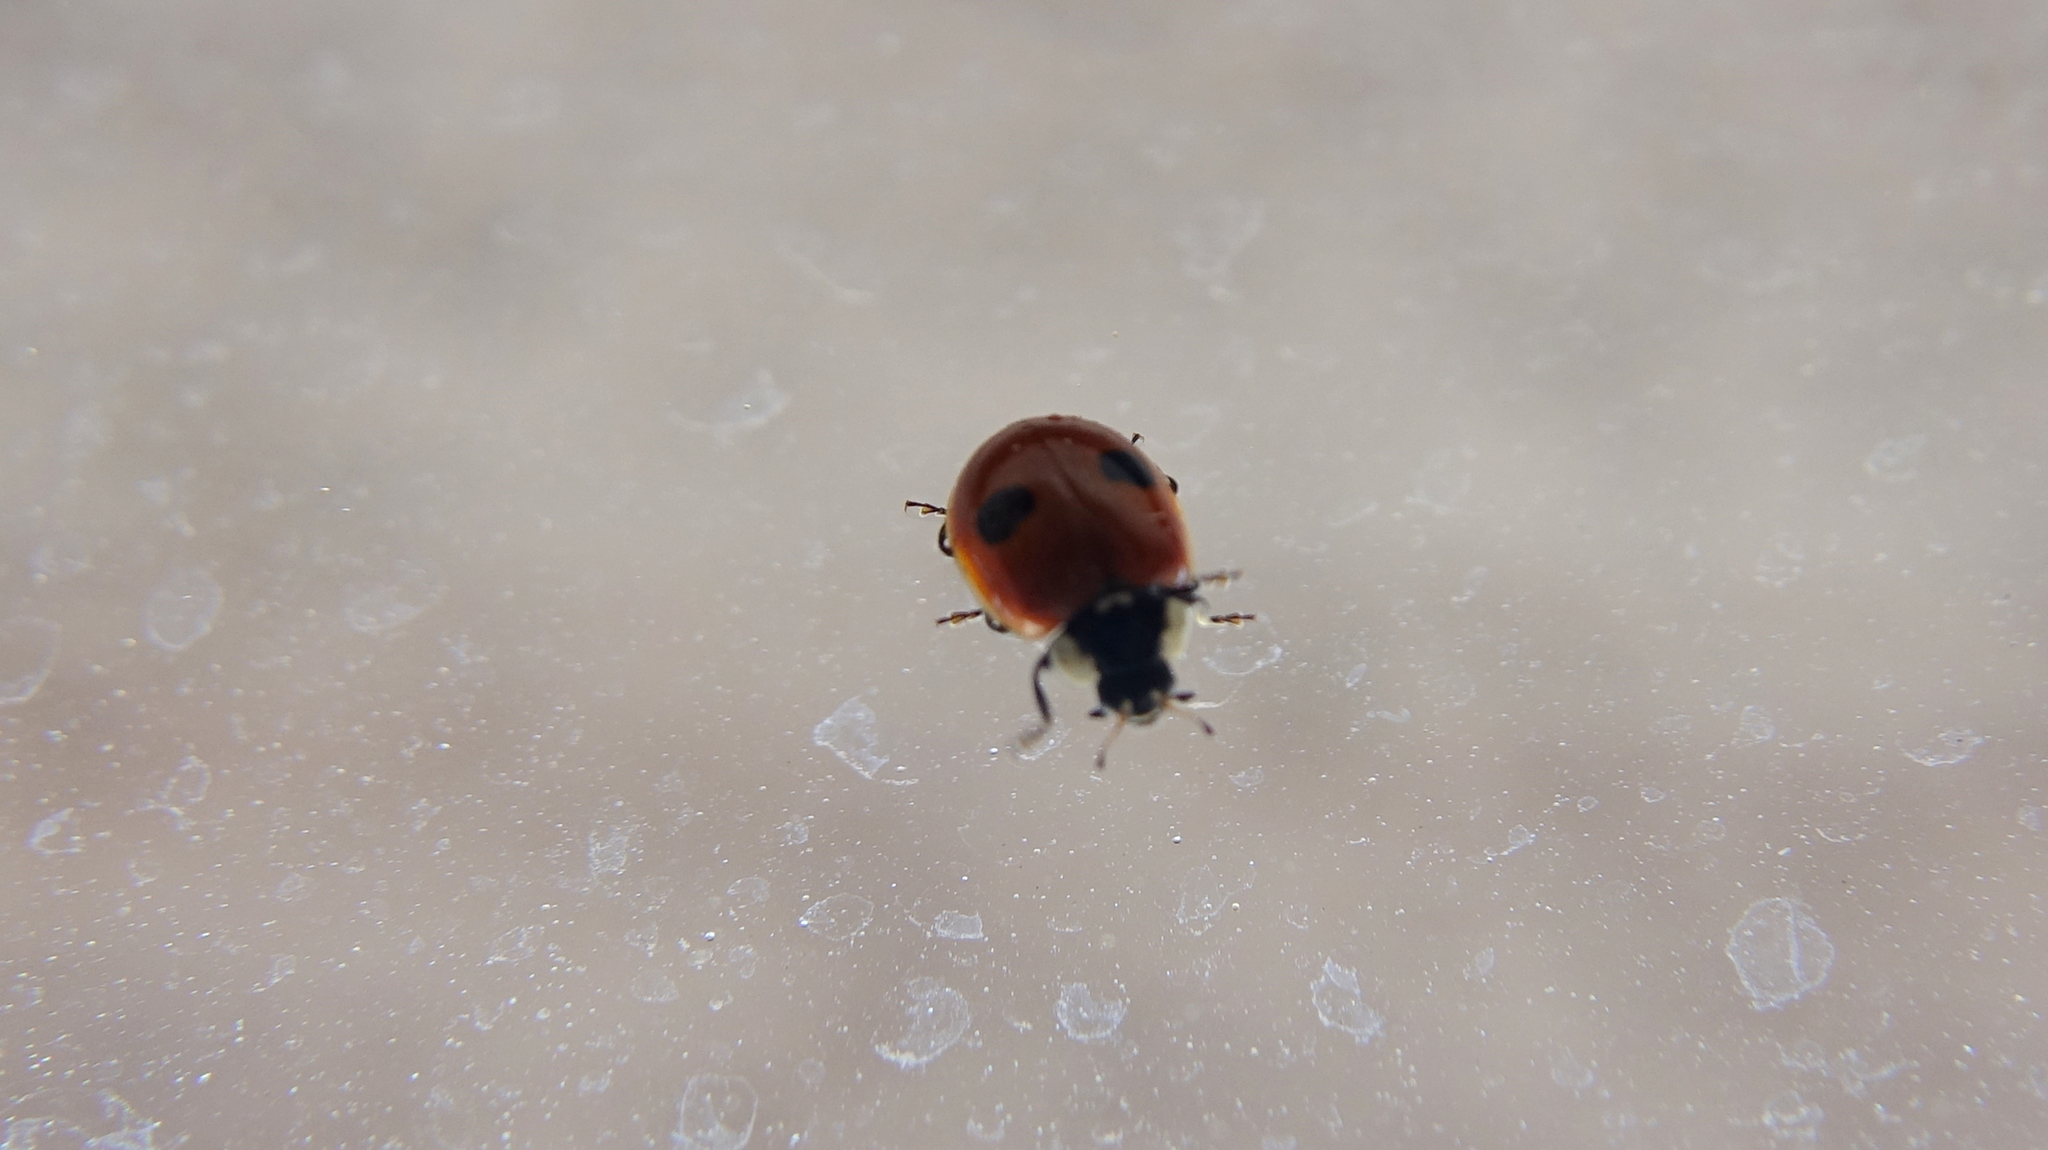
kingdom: Animalia
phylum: Arthropoda
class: Insecta
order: Coleoptera
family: Coccinellidae
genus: Adalia
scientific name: Adalia bipunctata
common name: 2-spot ladybird
